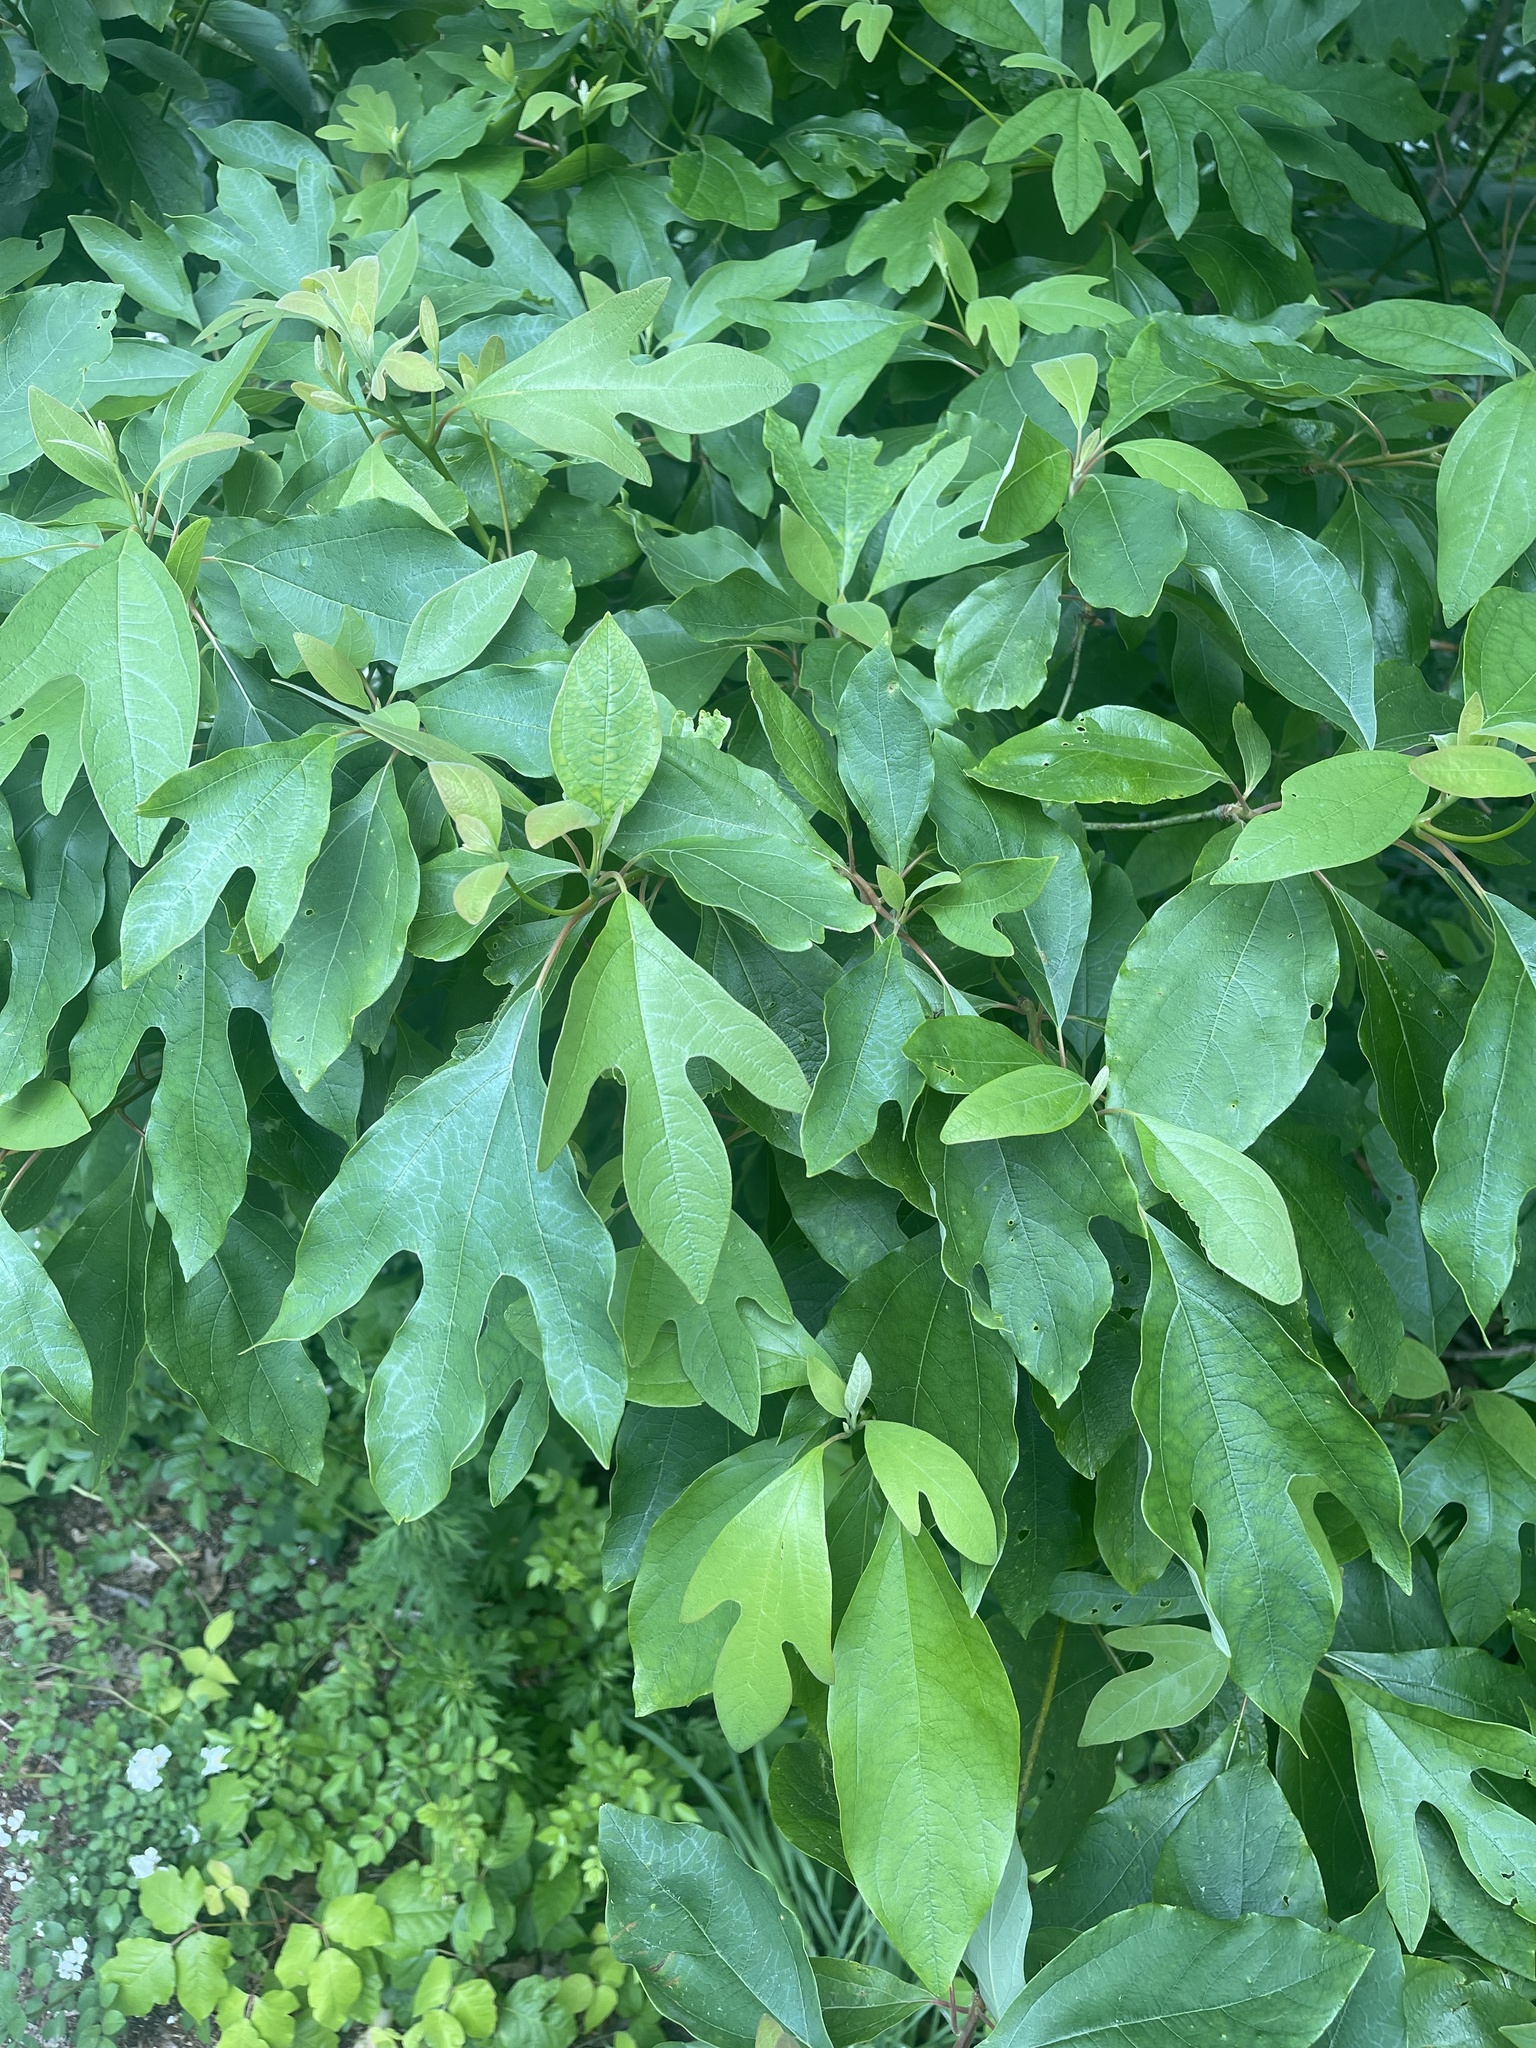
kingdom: Plantae
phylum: Tracheophyta
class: Magnoliopsida
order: Laurales
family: Lauraceae
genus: Sassafras
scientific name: Sassafras albidum
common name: Sassafras
